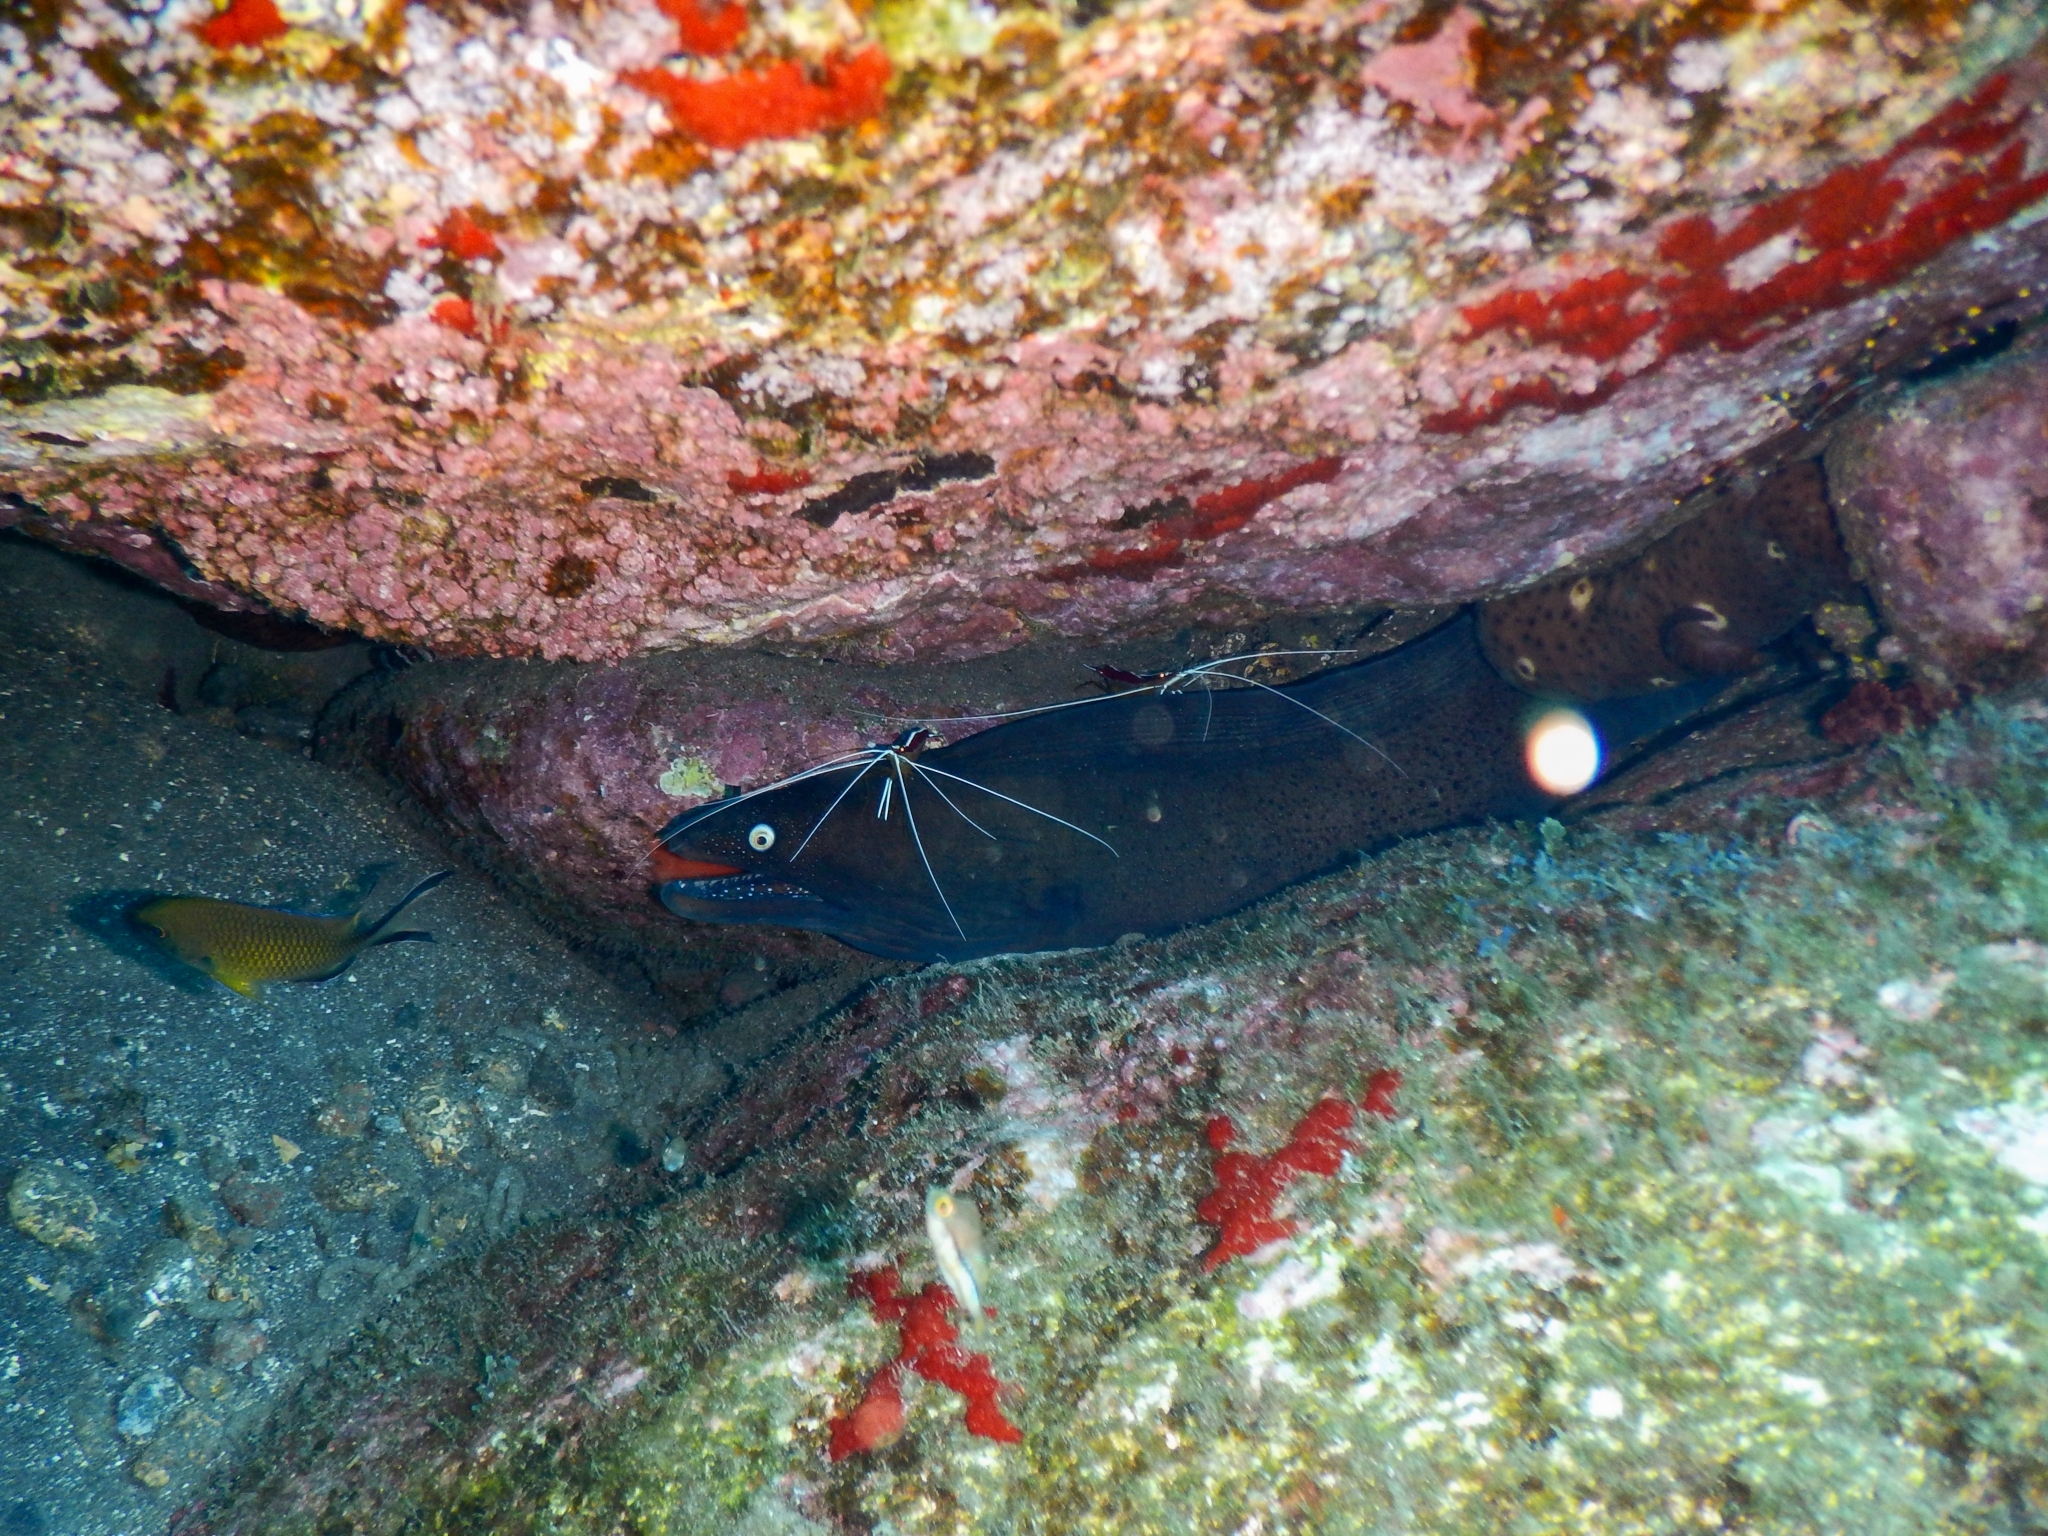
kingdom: Animalia
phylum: Chordata
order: Anguilliformes
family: Muraenidae
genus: Muraena
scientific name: Muraena augusti
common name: Mediterranean moray
